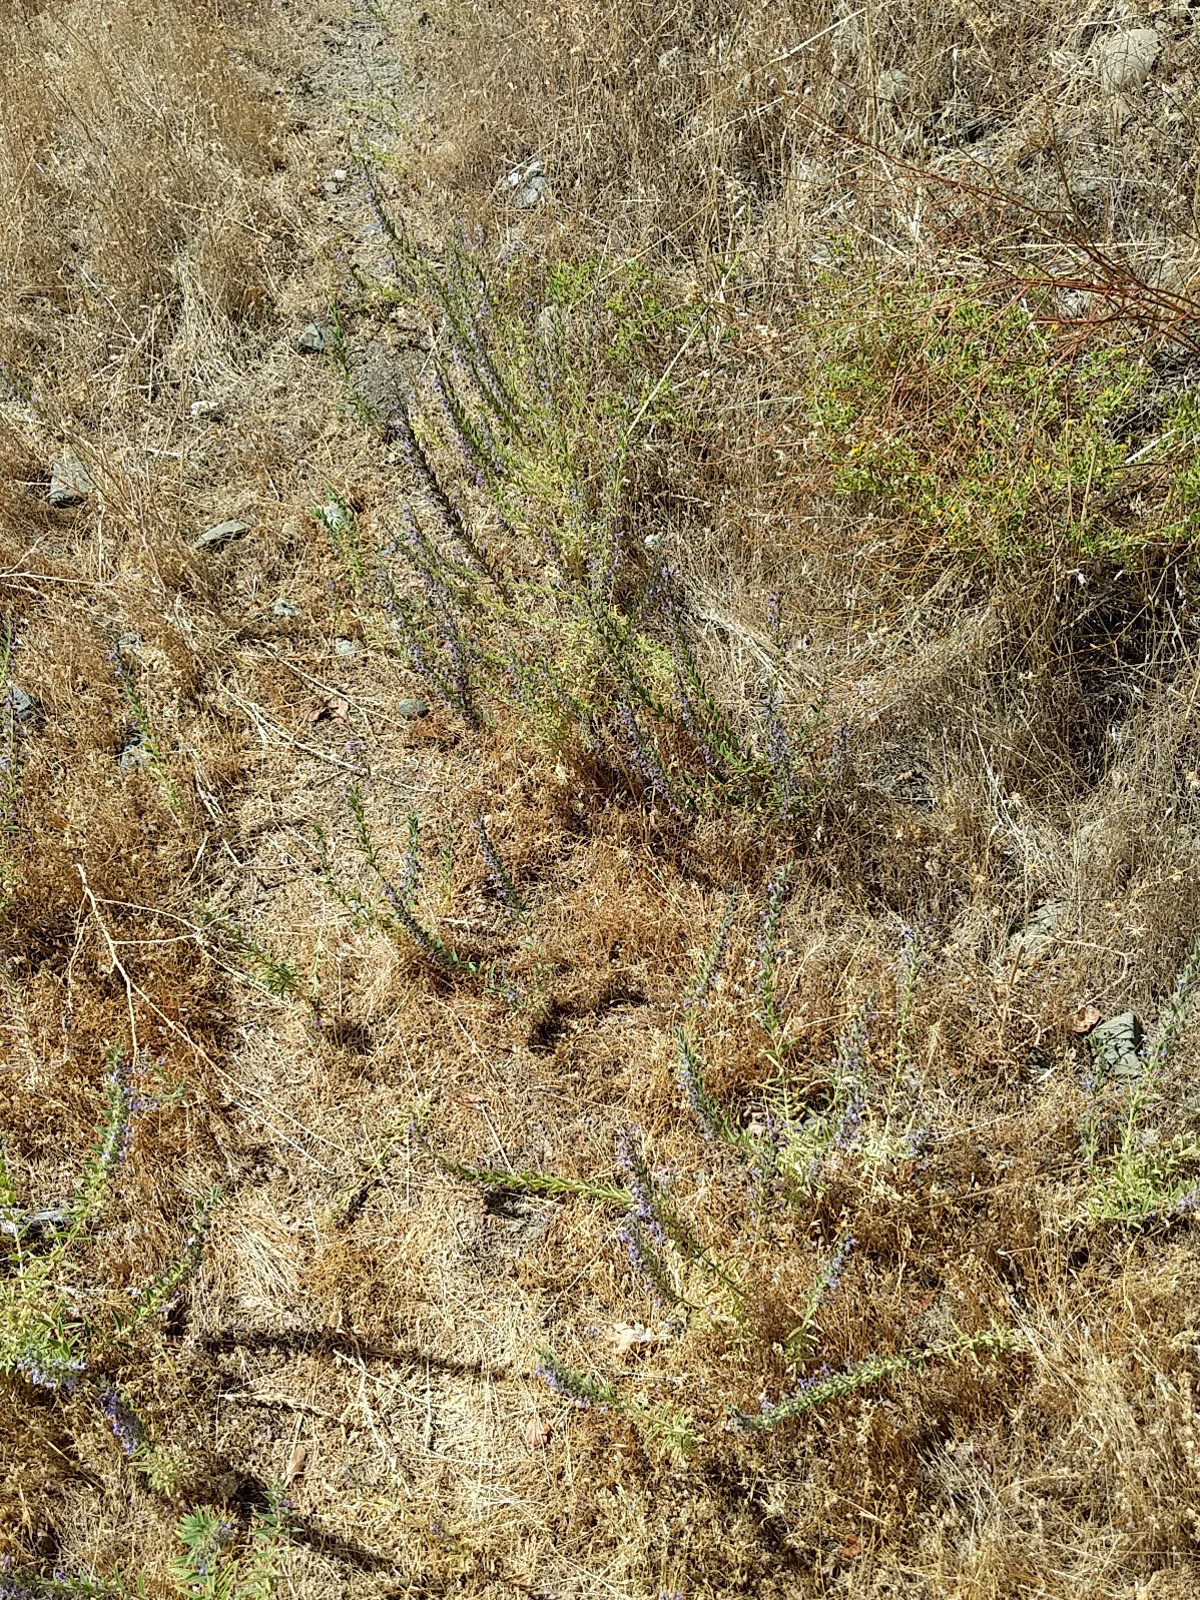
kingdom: Plantae
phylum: Tracheophyta
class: Magnoliopsida
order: Lamiales
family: Lamiaceae
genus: Trichostema
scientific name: Trichostema lanceolatum
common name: Vinegar-weed
